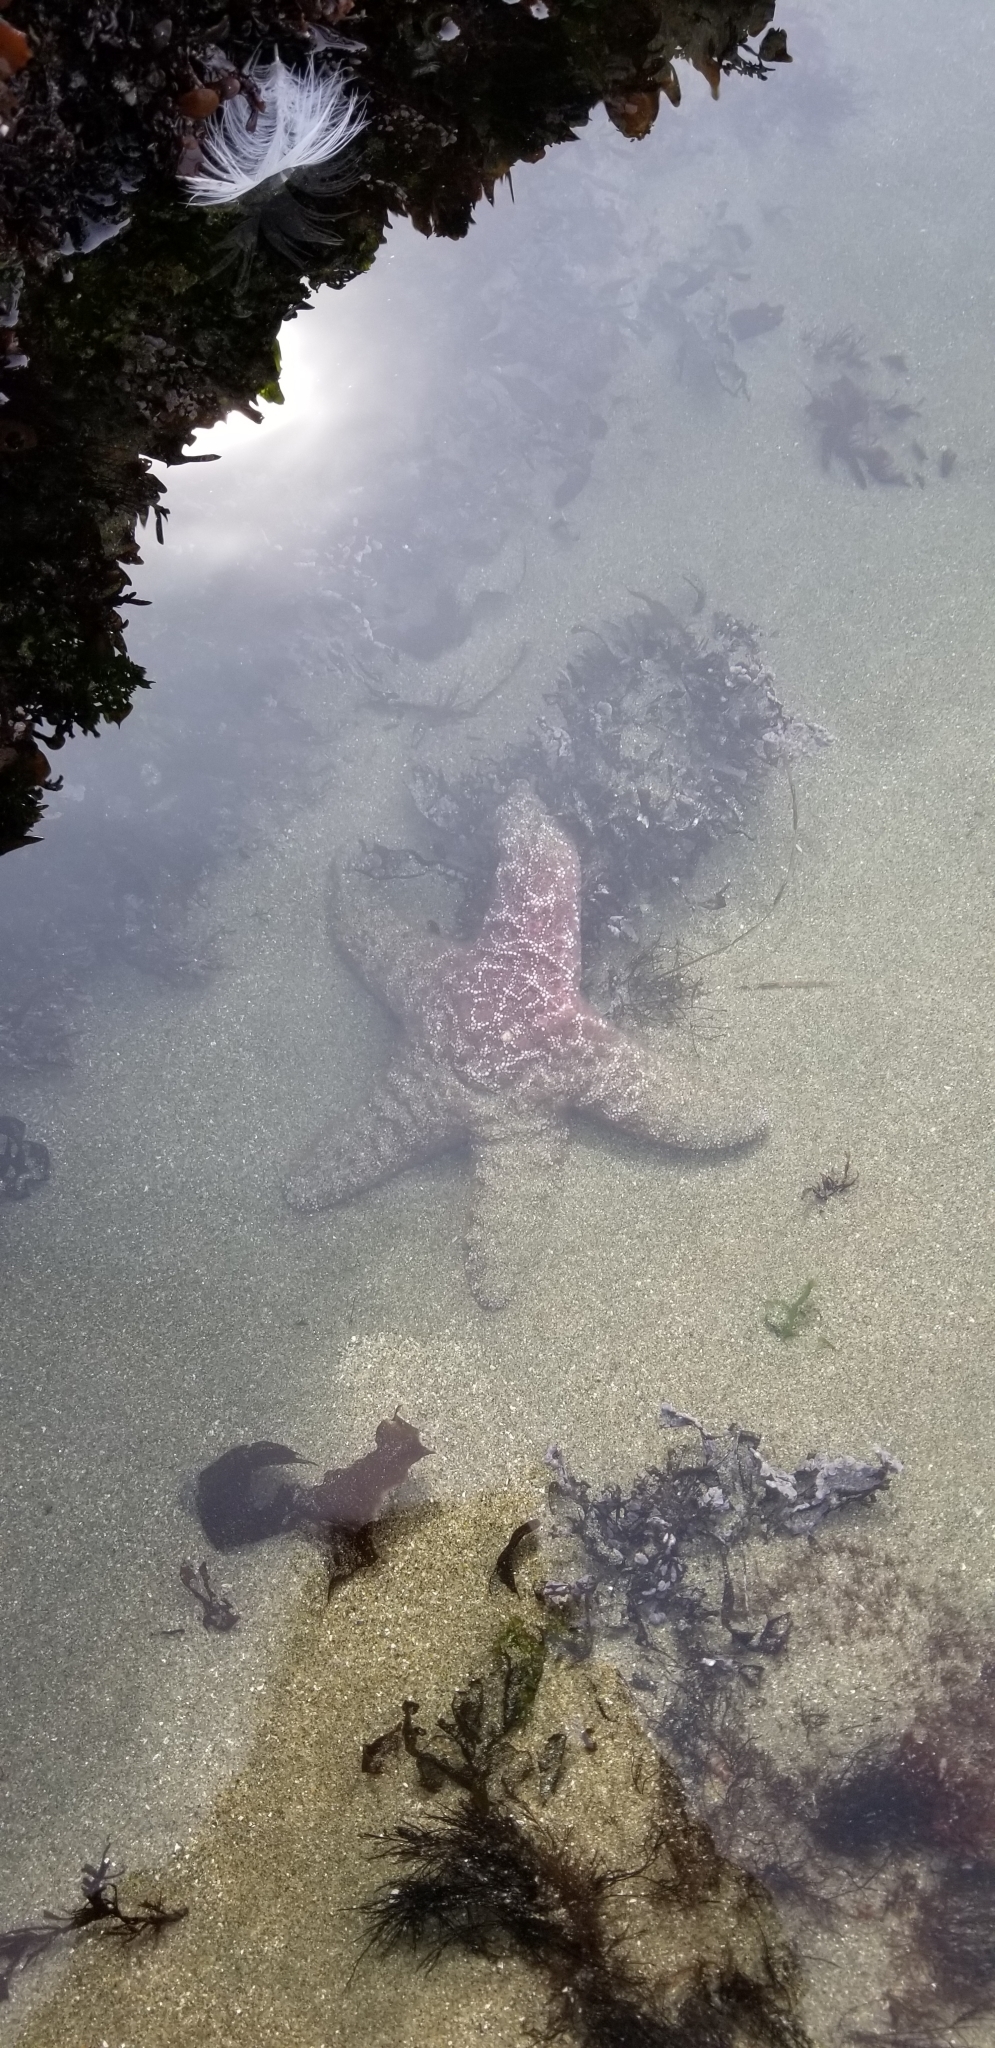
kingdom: Animalia
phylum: Echinodermata
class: Asteroidea
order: Forcipulatida
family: Asteriidae
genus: Pisaster
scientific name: Pisaster ochraceus
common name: Ochre stars
